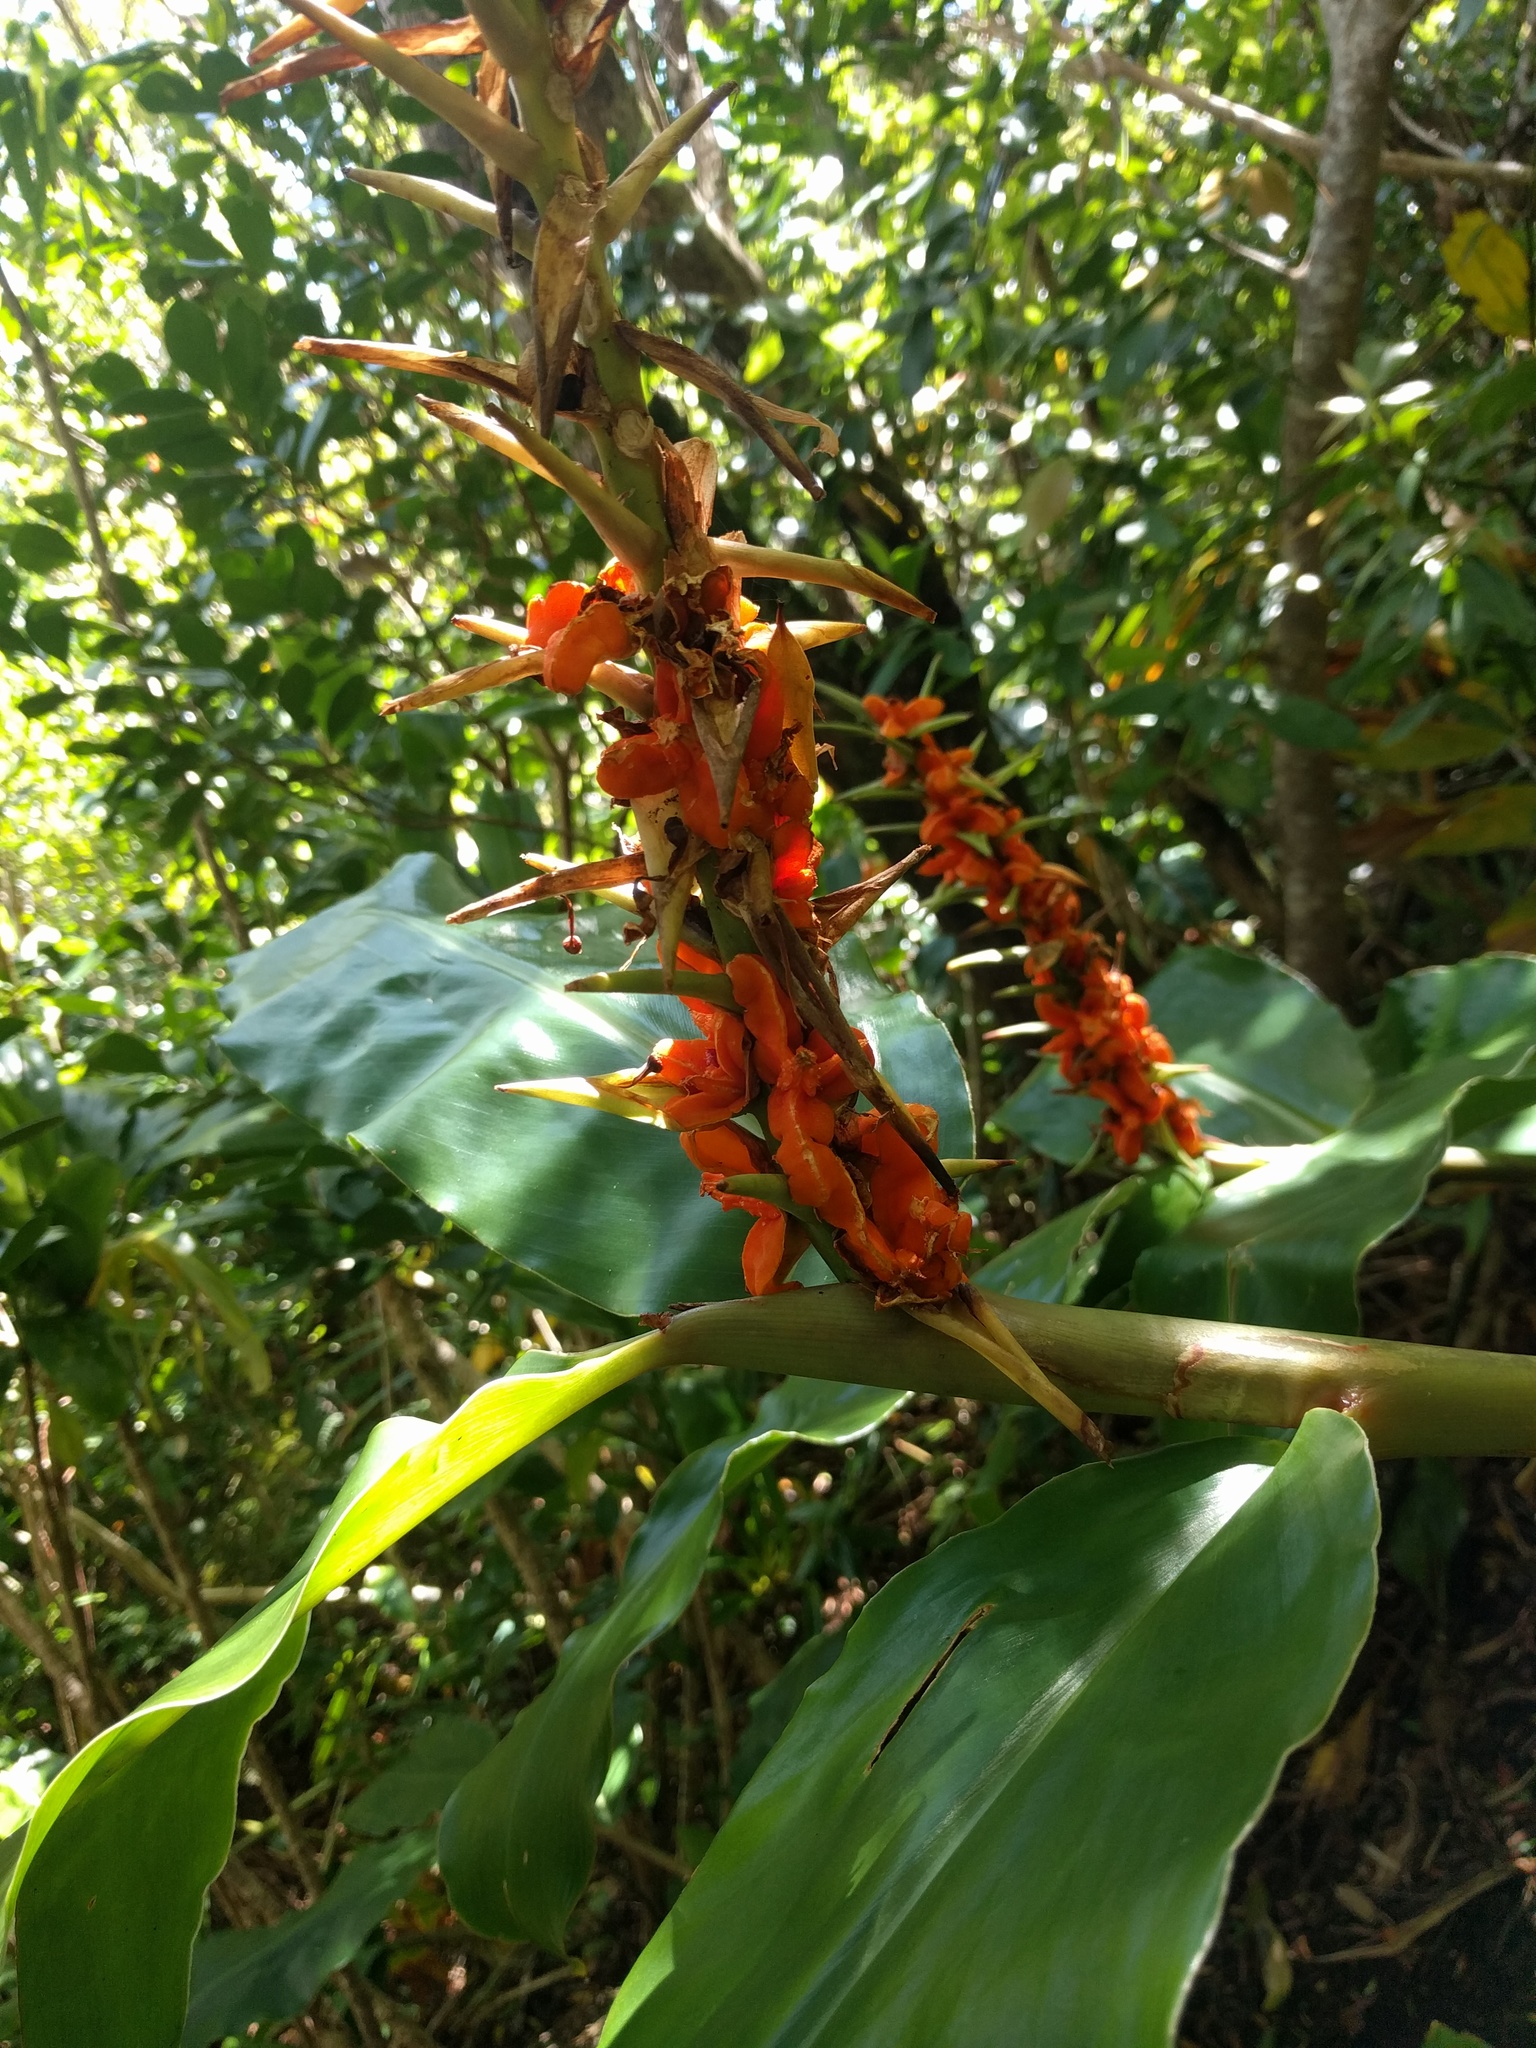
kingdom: Plantae
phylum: Tracheophyta
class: Liliopsida
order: Zingiberales
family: Zingiberaceae
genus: Hedychium
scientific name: Hedychium gardnerianum
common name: Himalayan ginger
